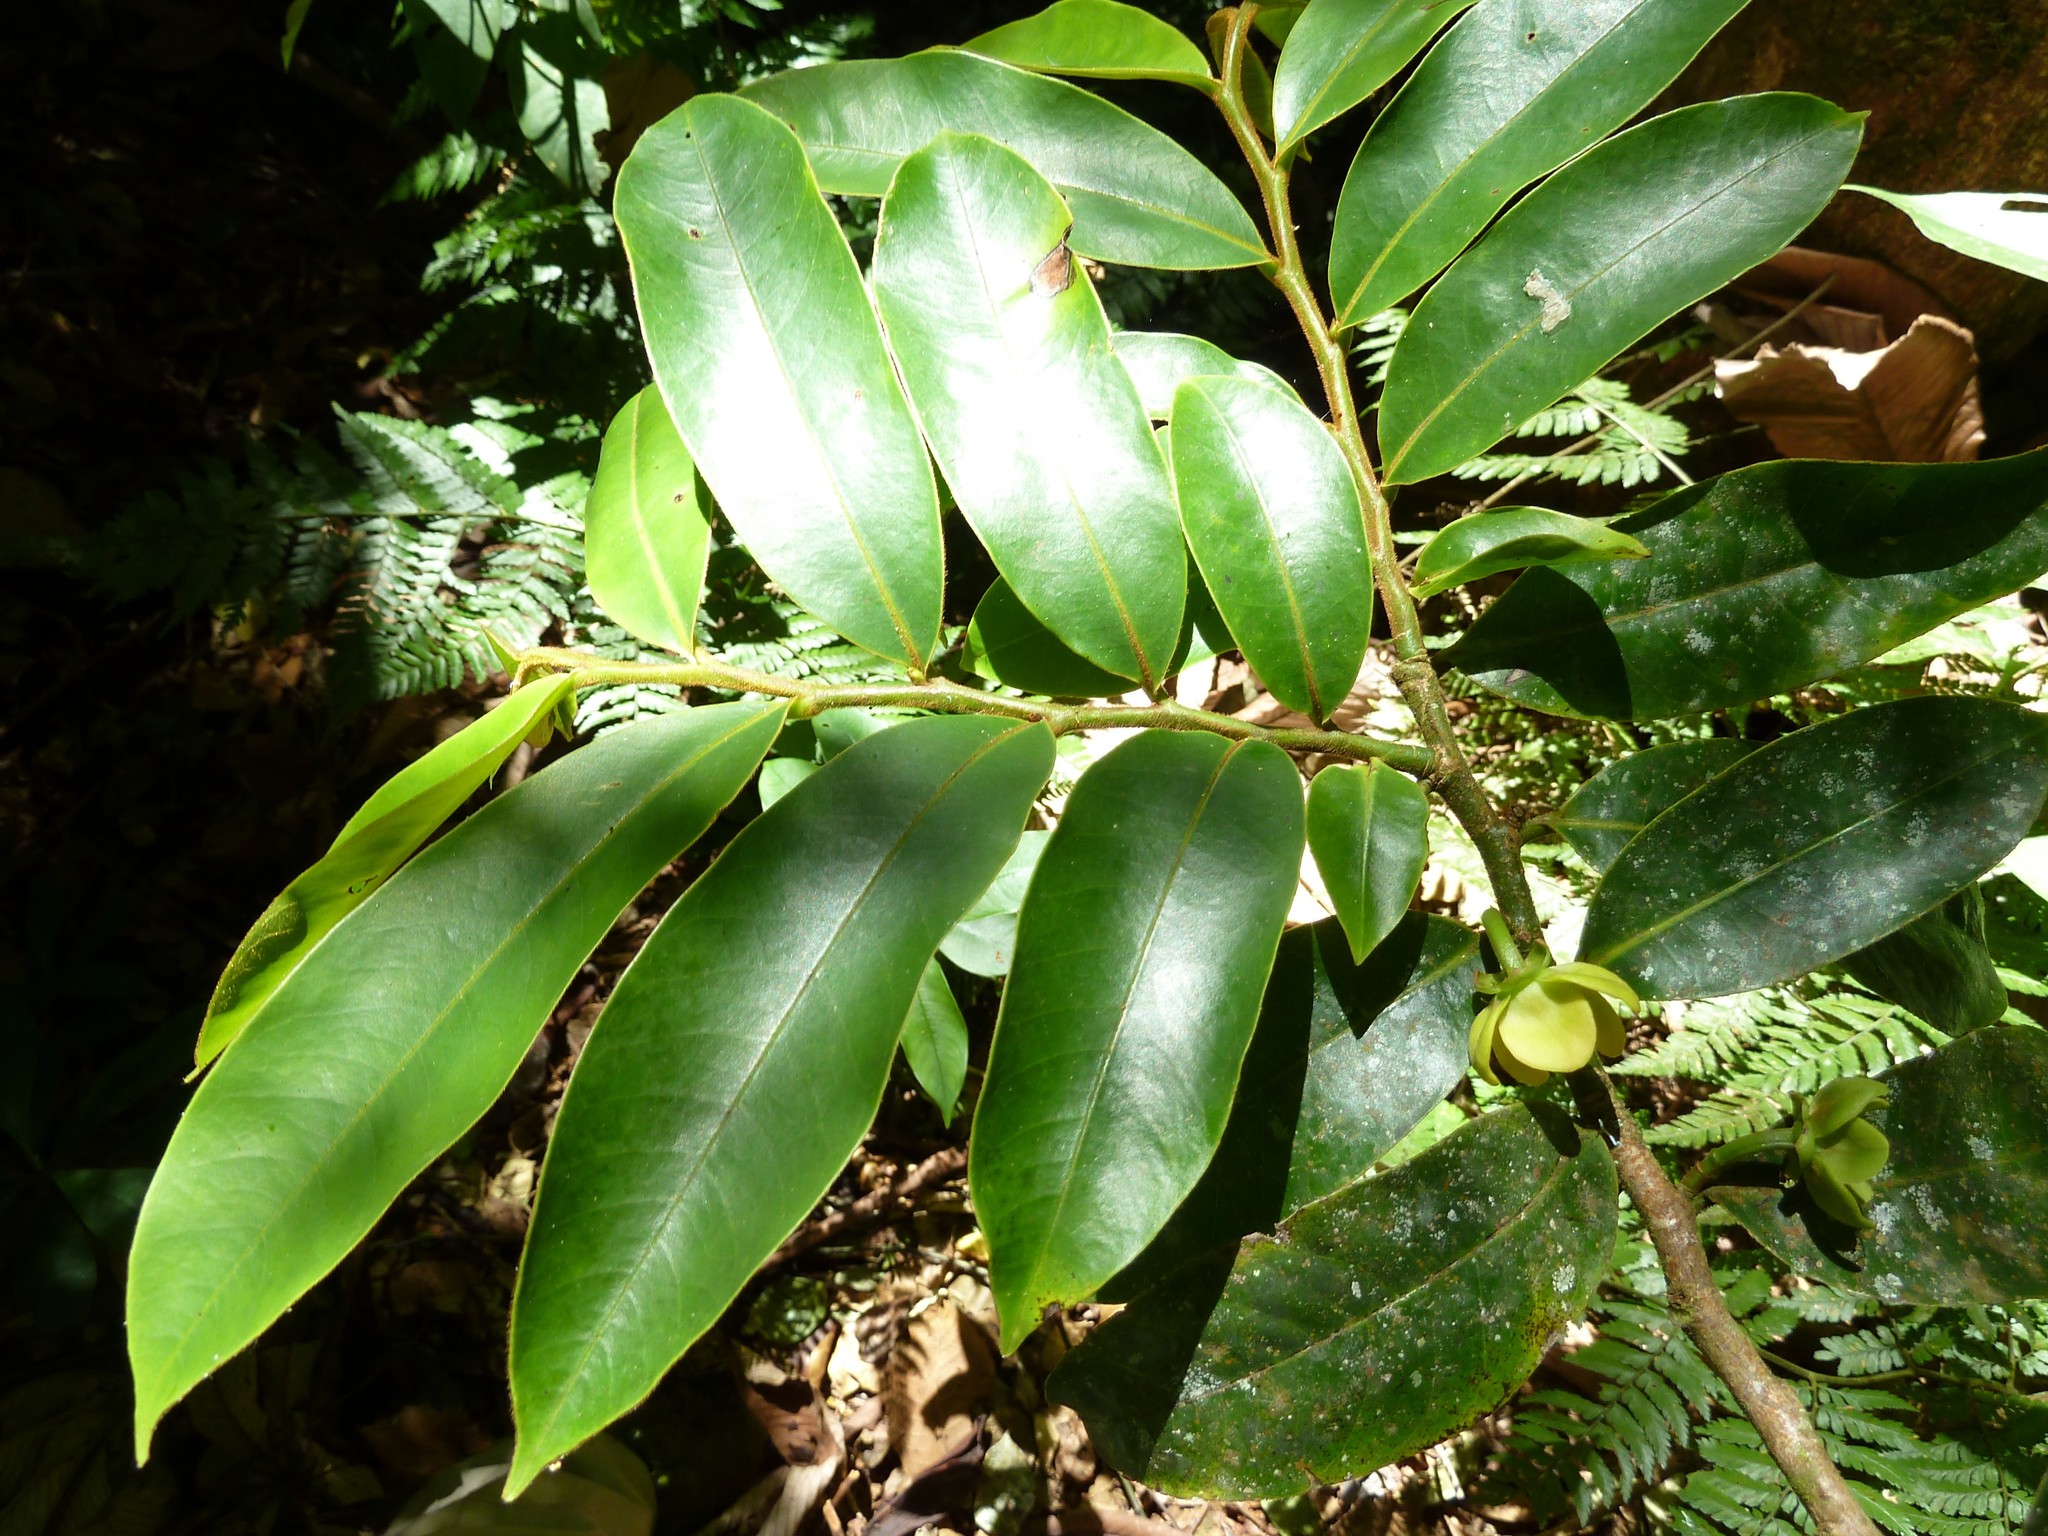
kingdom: Plantae
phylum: Tracheophyta
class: Magnoliopsida
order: Magnoliales
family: Annonaceae
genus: Guatteria
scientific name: Guatteria oliviformis
